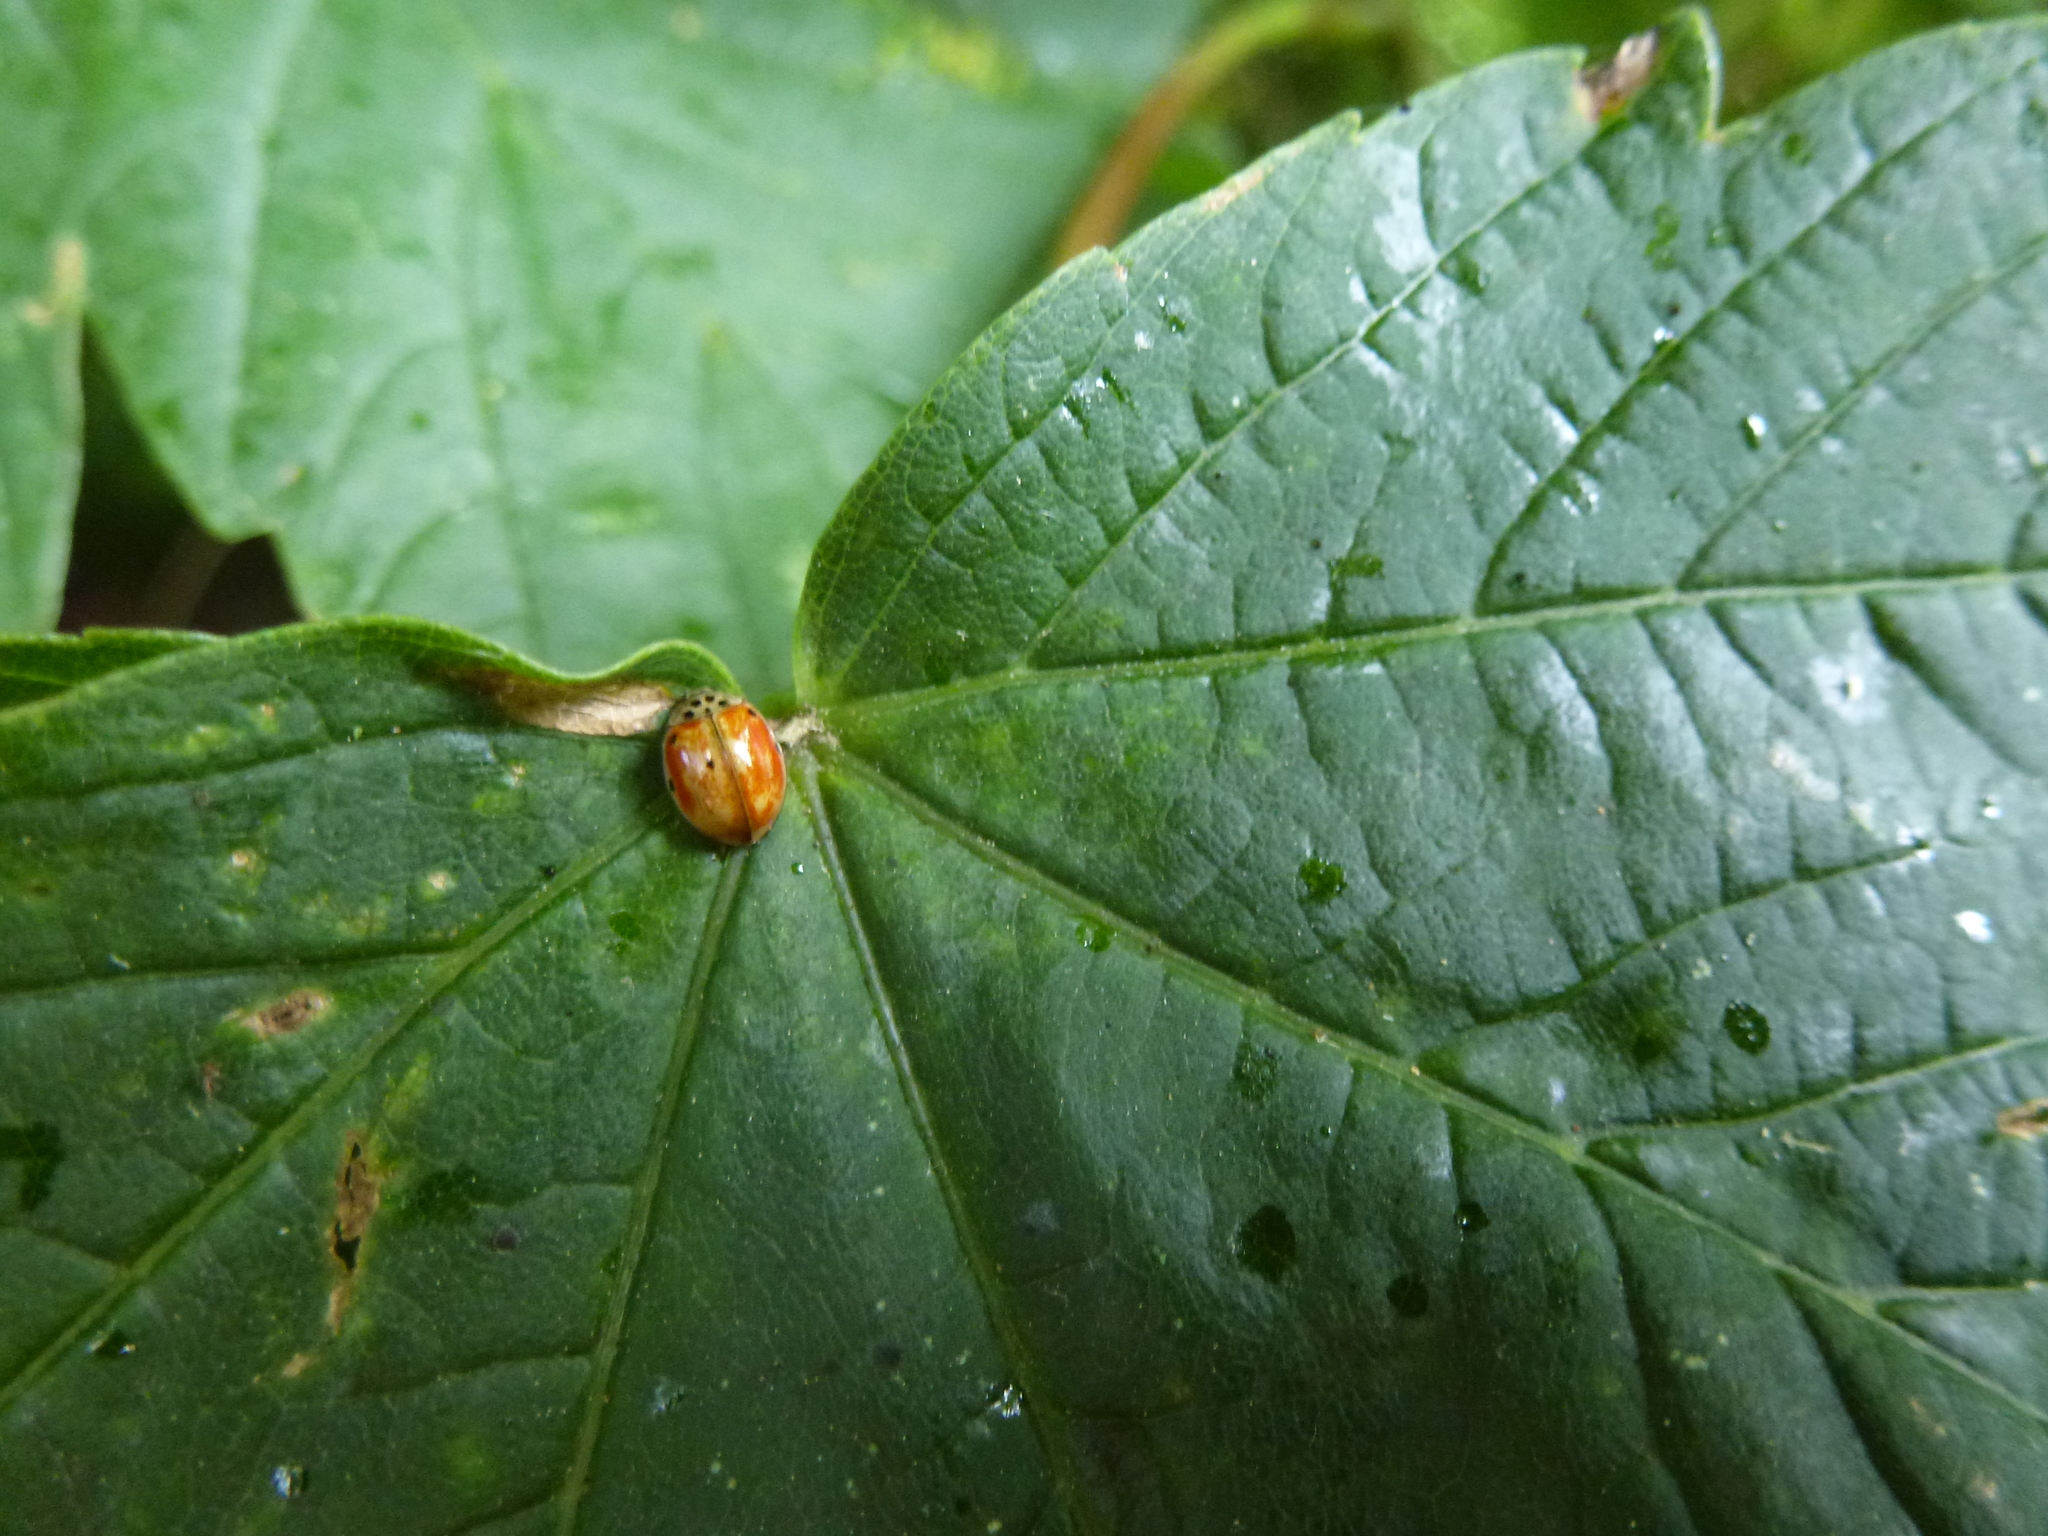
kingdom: Animalia
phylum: Arthropoda
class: Insecta
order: Coleoptera
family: Coccinellidae
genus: Adalia
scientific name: Adalia decempunctata
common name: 10-spot ladybird
